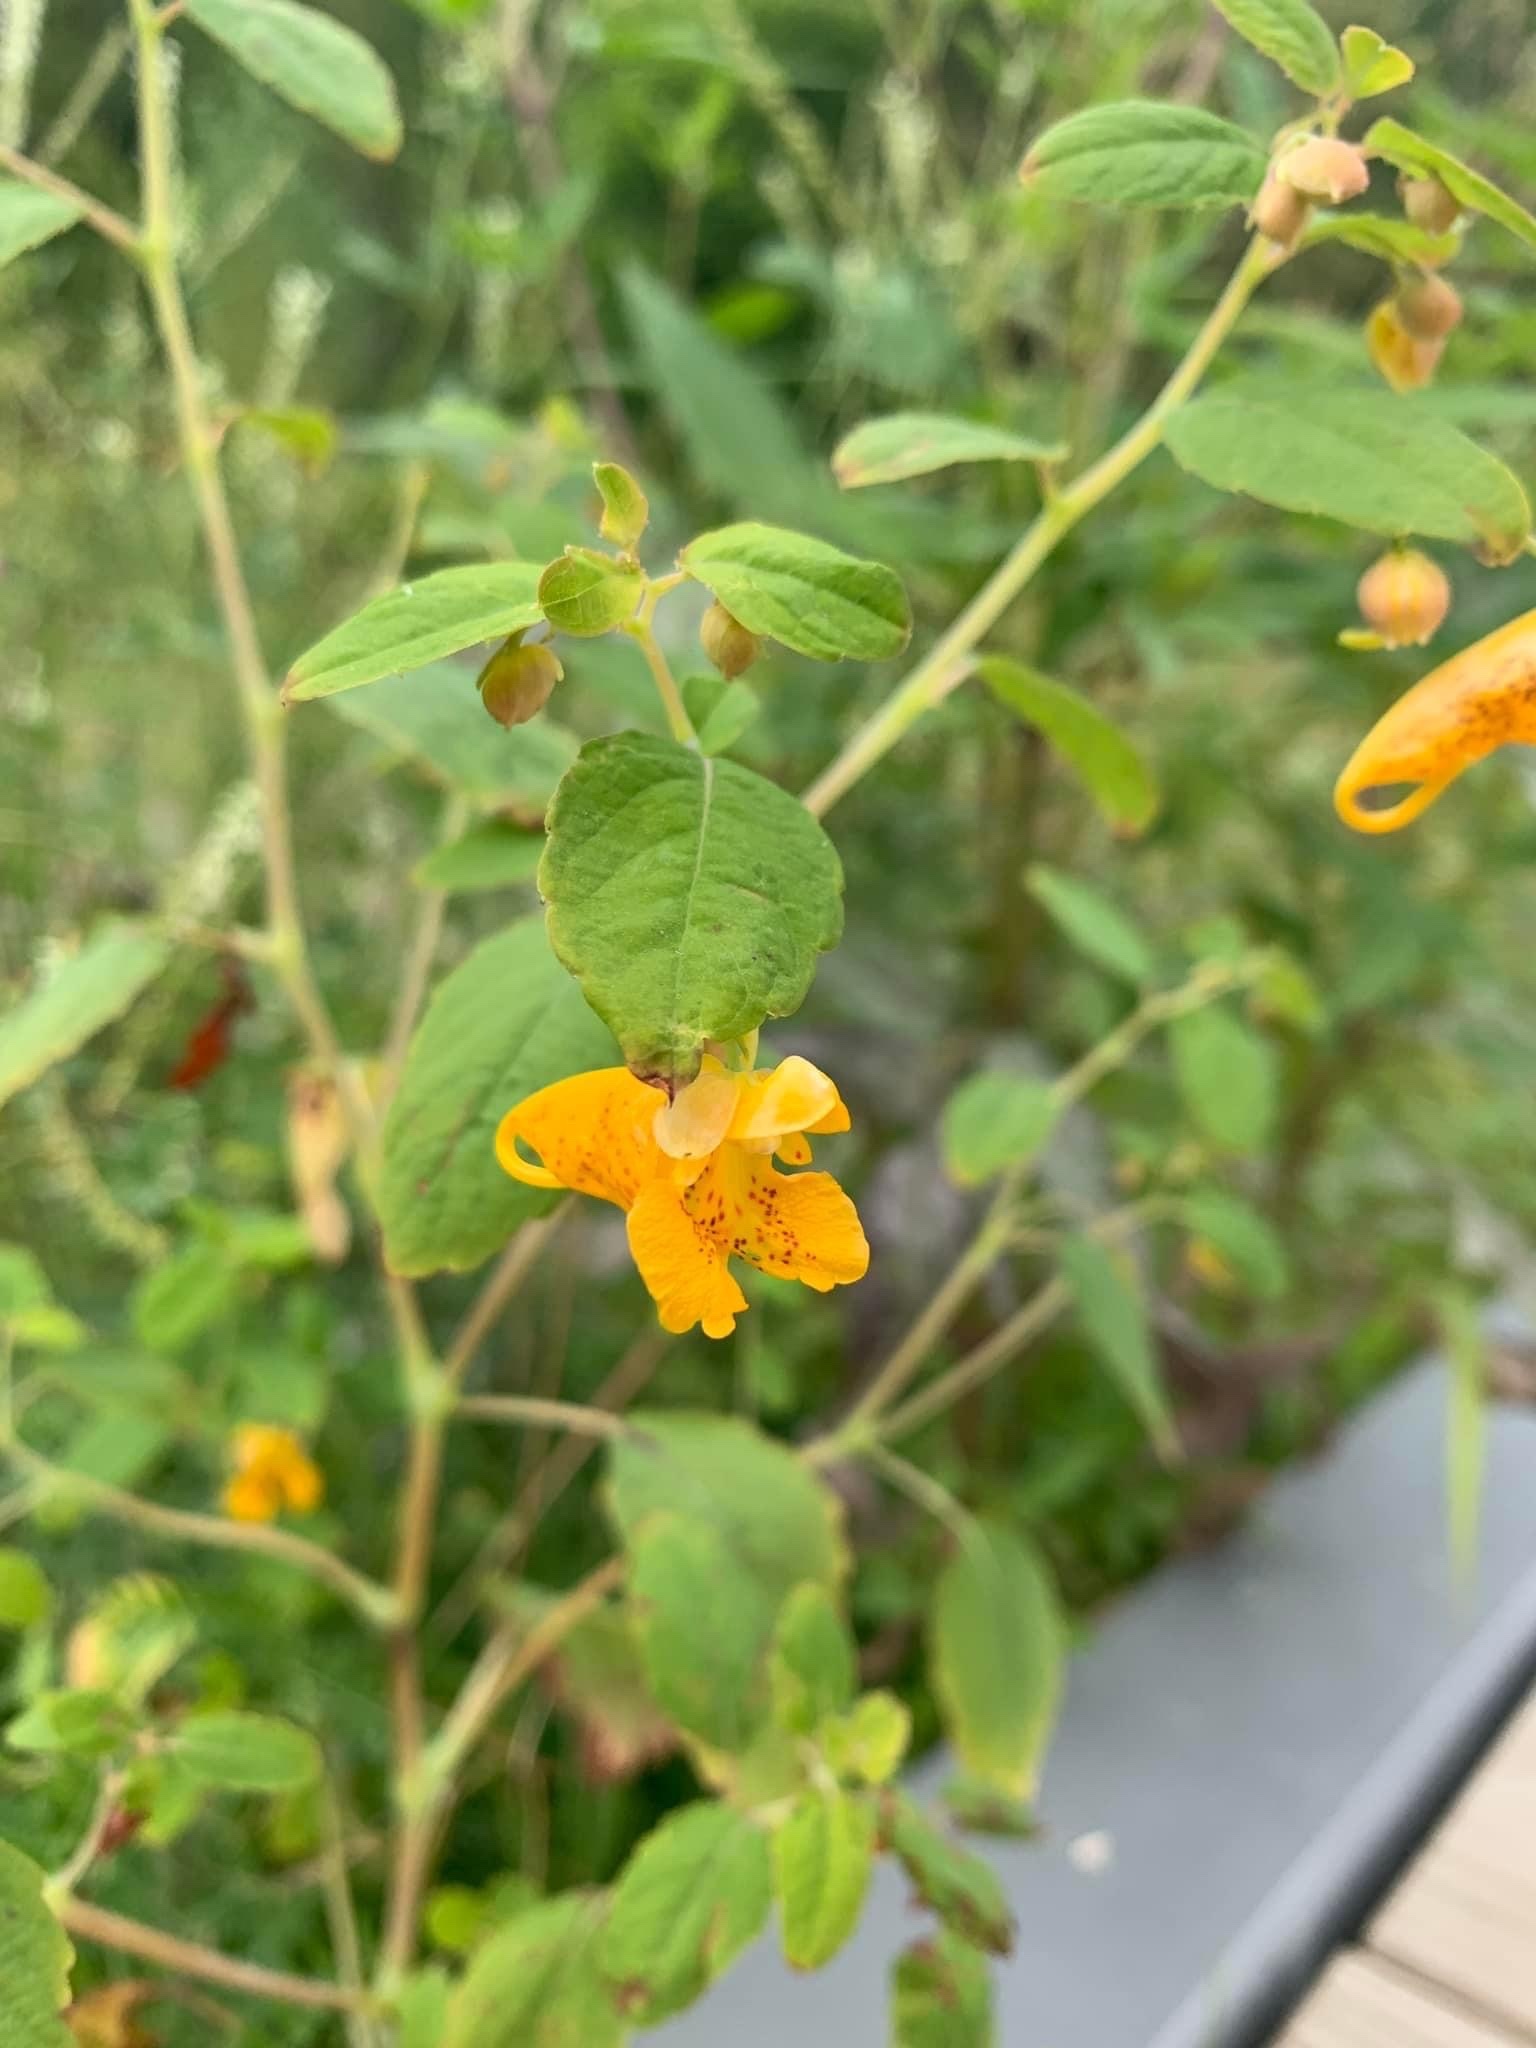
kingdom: Plantae
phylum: Tracheophyta
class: Magnoliopsida
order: Ericales
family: Balsaminaceae
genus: Impatiens
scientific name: Impatiens capensis
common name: Orange balsam
